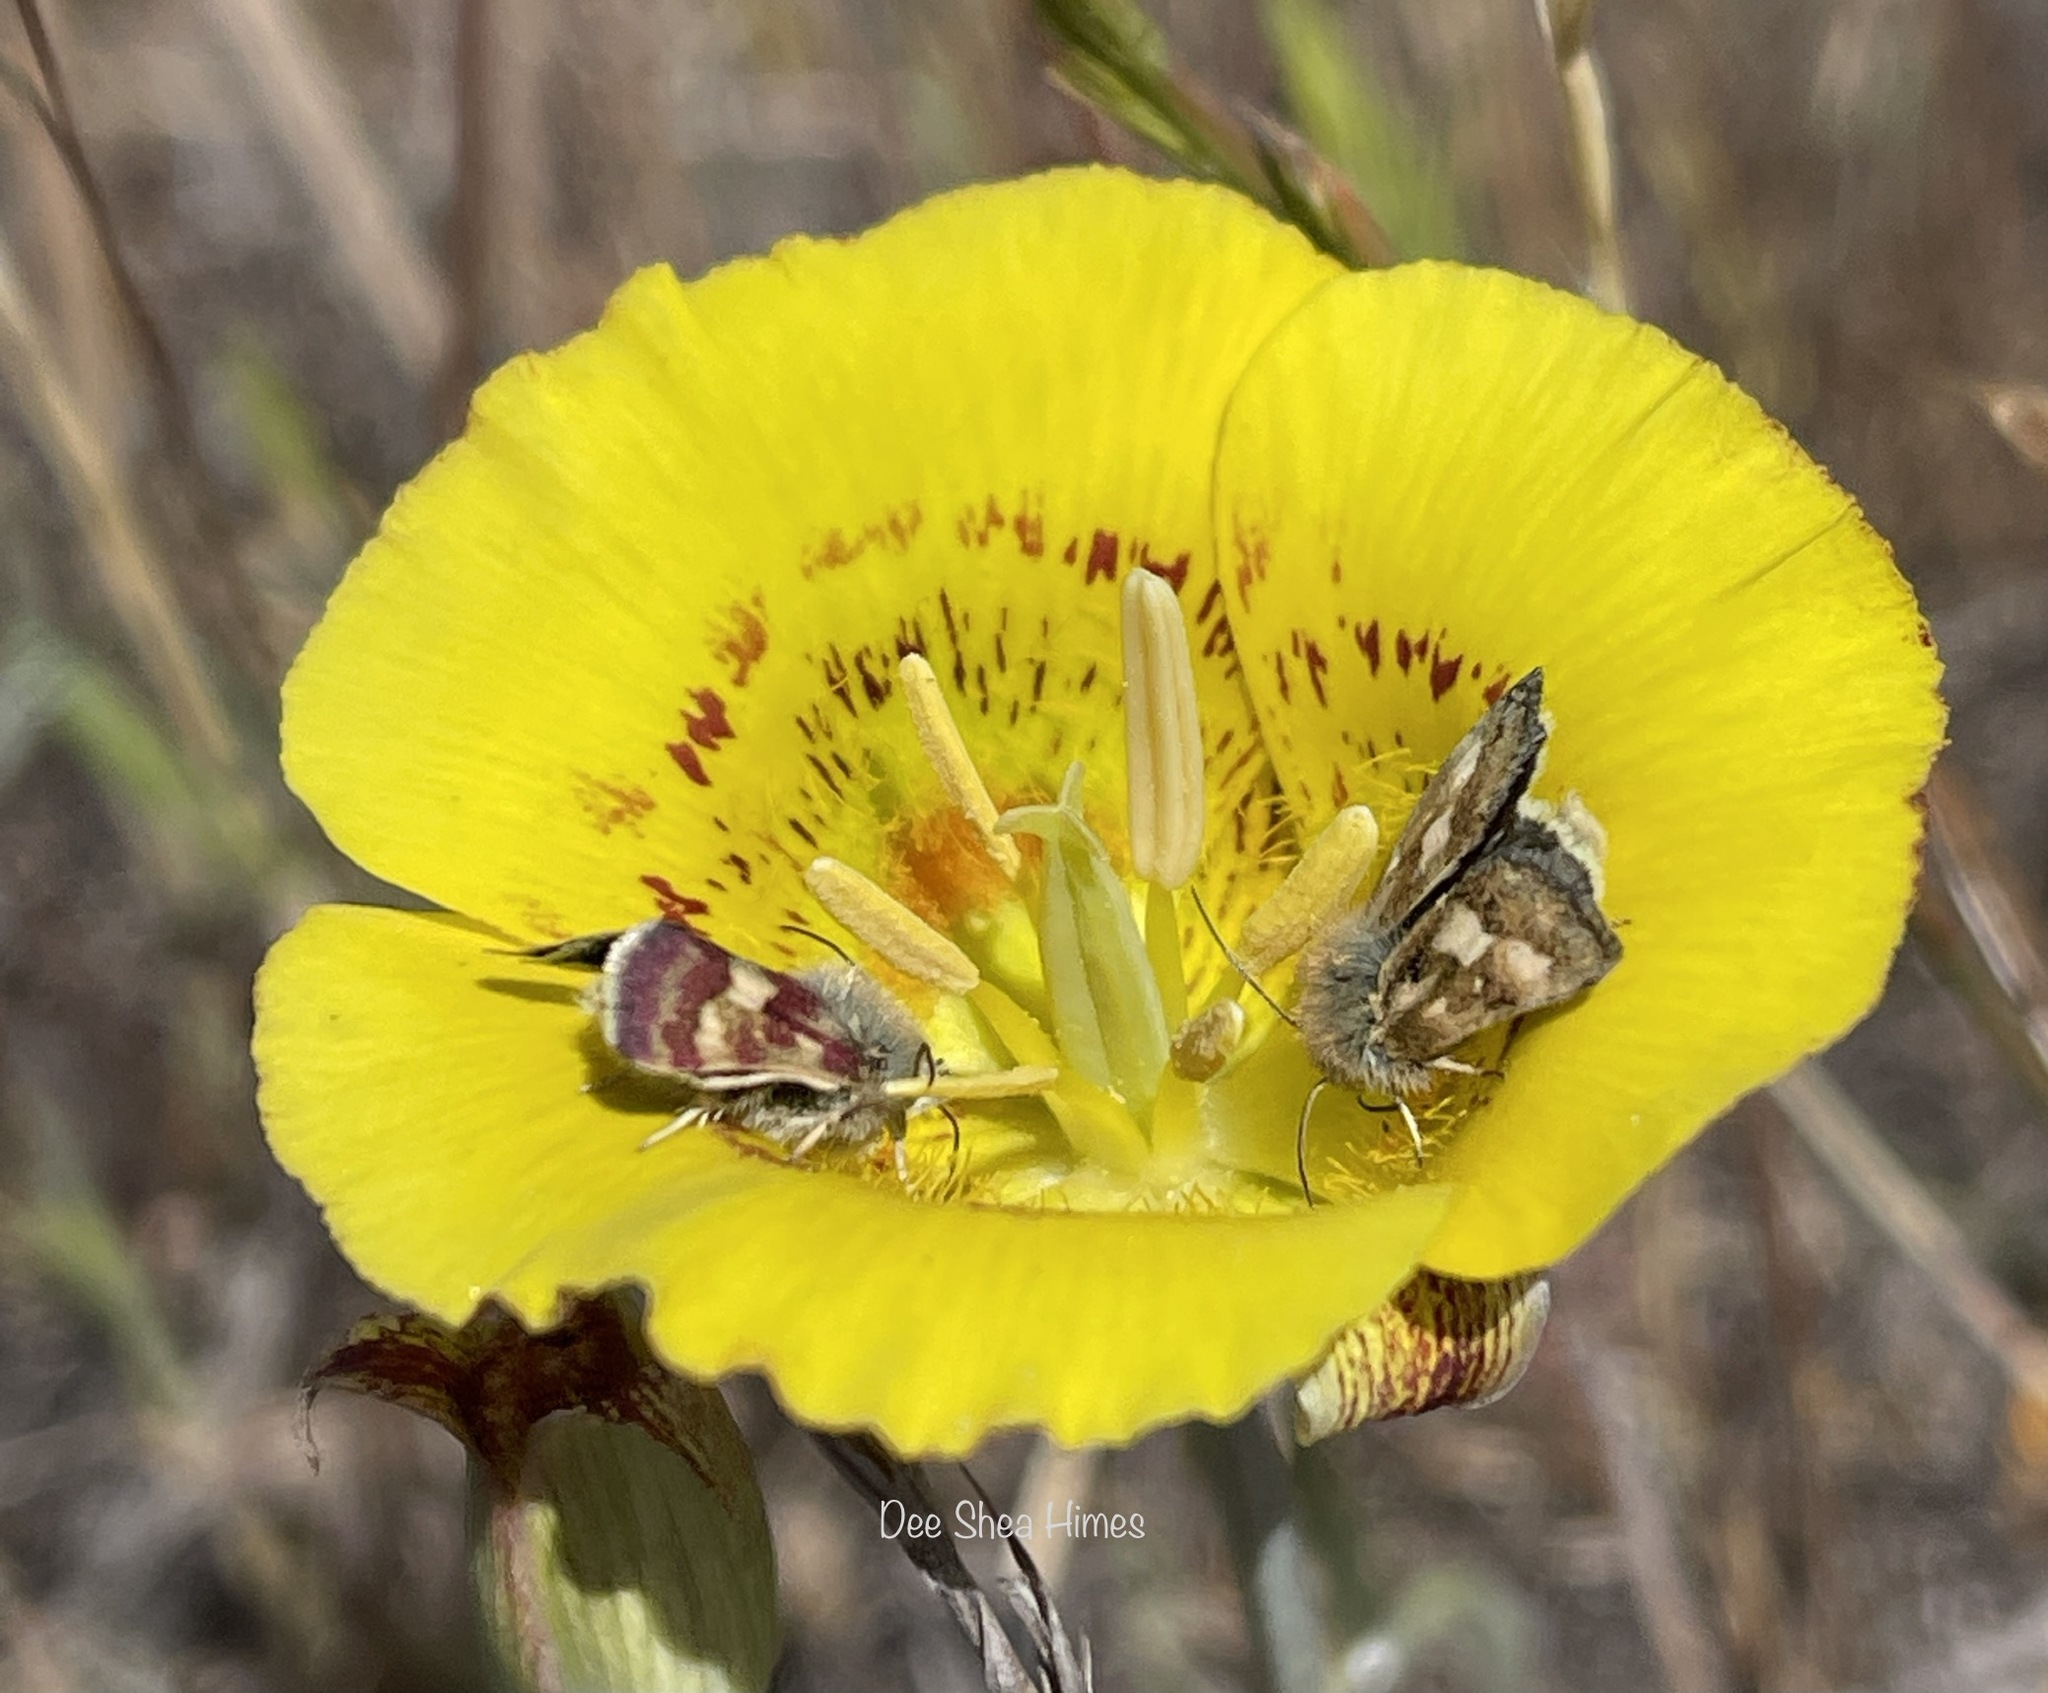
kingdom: Plantae
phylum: Tracheophyta
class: Liliopsida
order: Liliales
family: Liliaceae
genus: Calochortus
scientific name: Calochortus luteus
